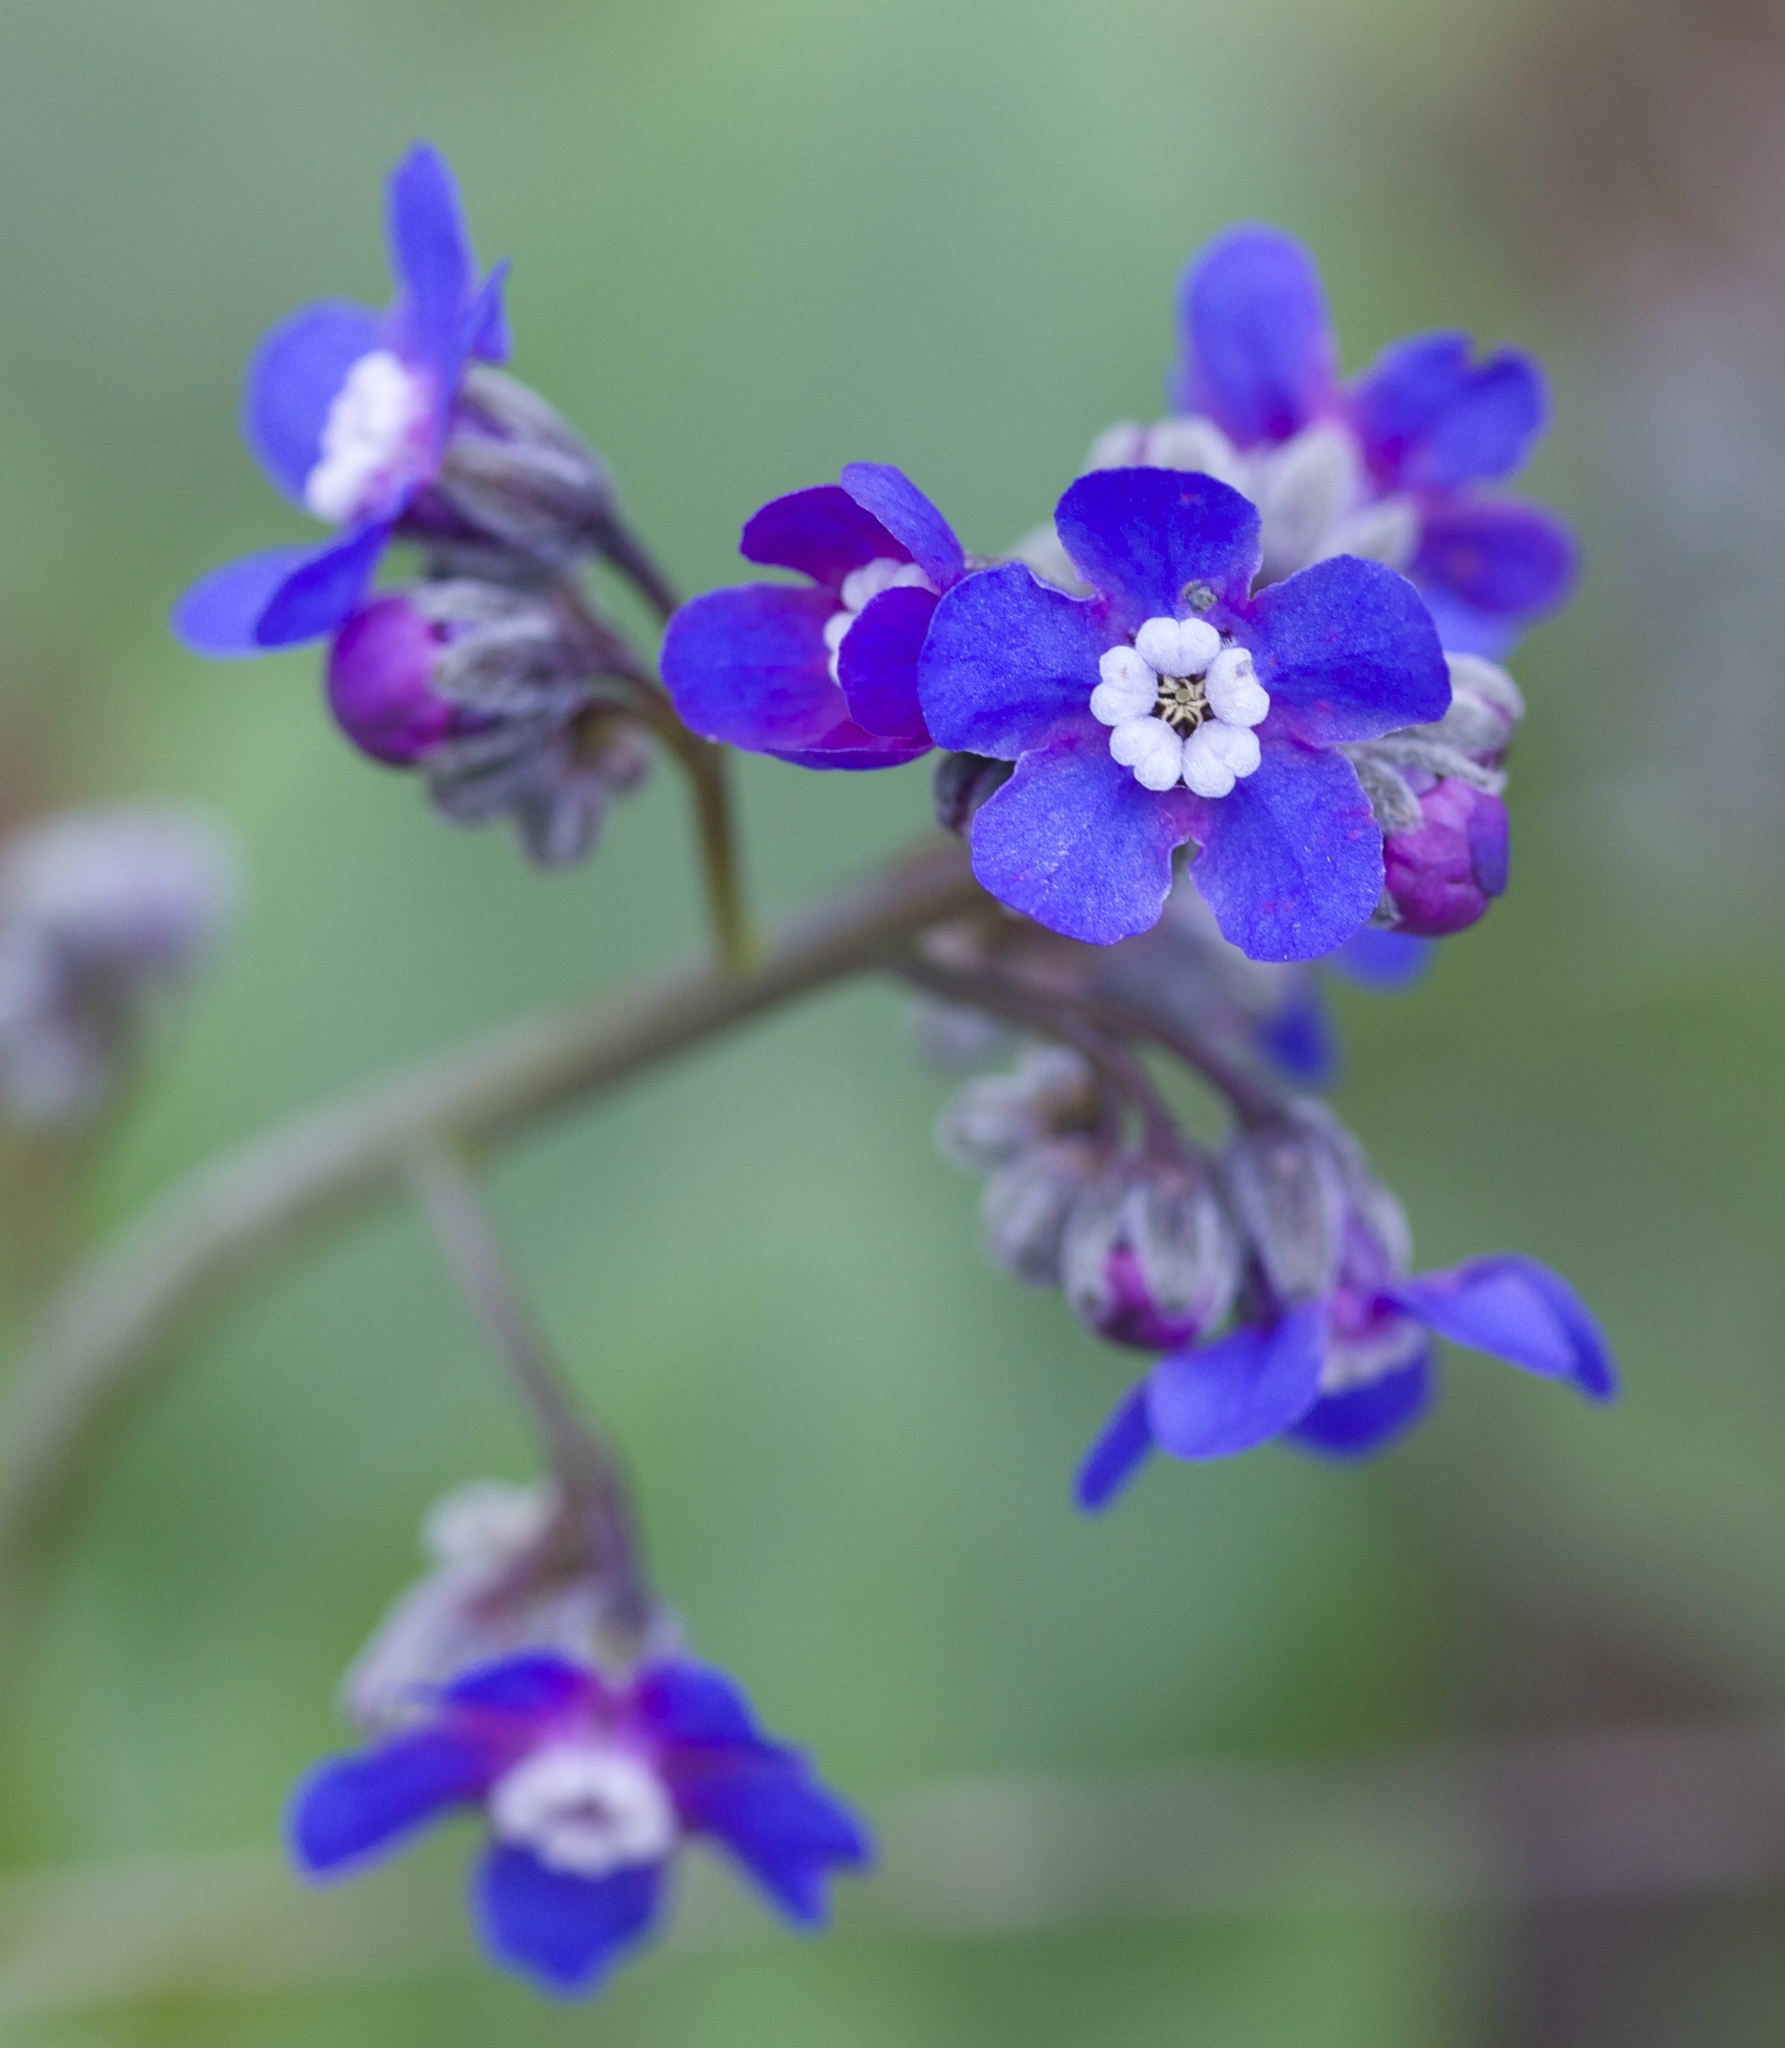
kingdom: Plantae
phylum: Tracheophyta
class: Magnoliopsida
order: Boraginales
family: Boraginaceae
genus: Adelinia
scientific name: Adelinia grande
